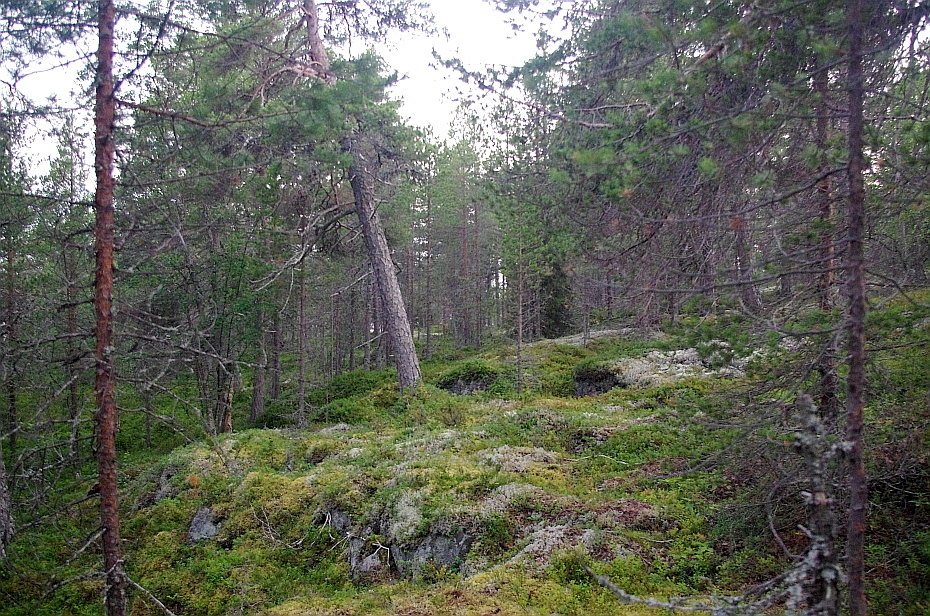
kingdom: Plantae
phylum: Tracheophyta
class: Pinopsida
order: Pinales
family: Pinaceae
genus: Pinus
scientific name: Pinus sylvestris
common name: Scots pine
